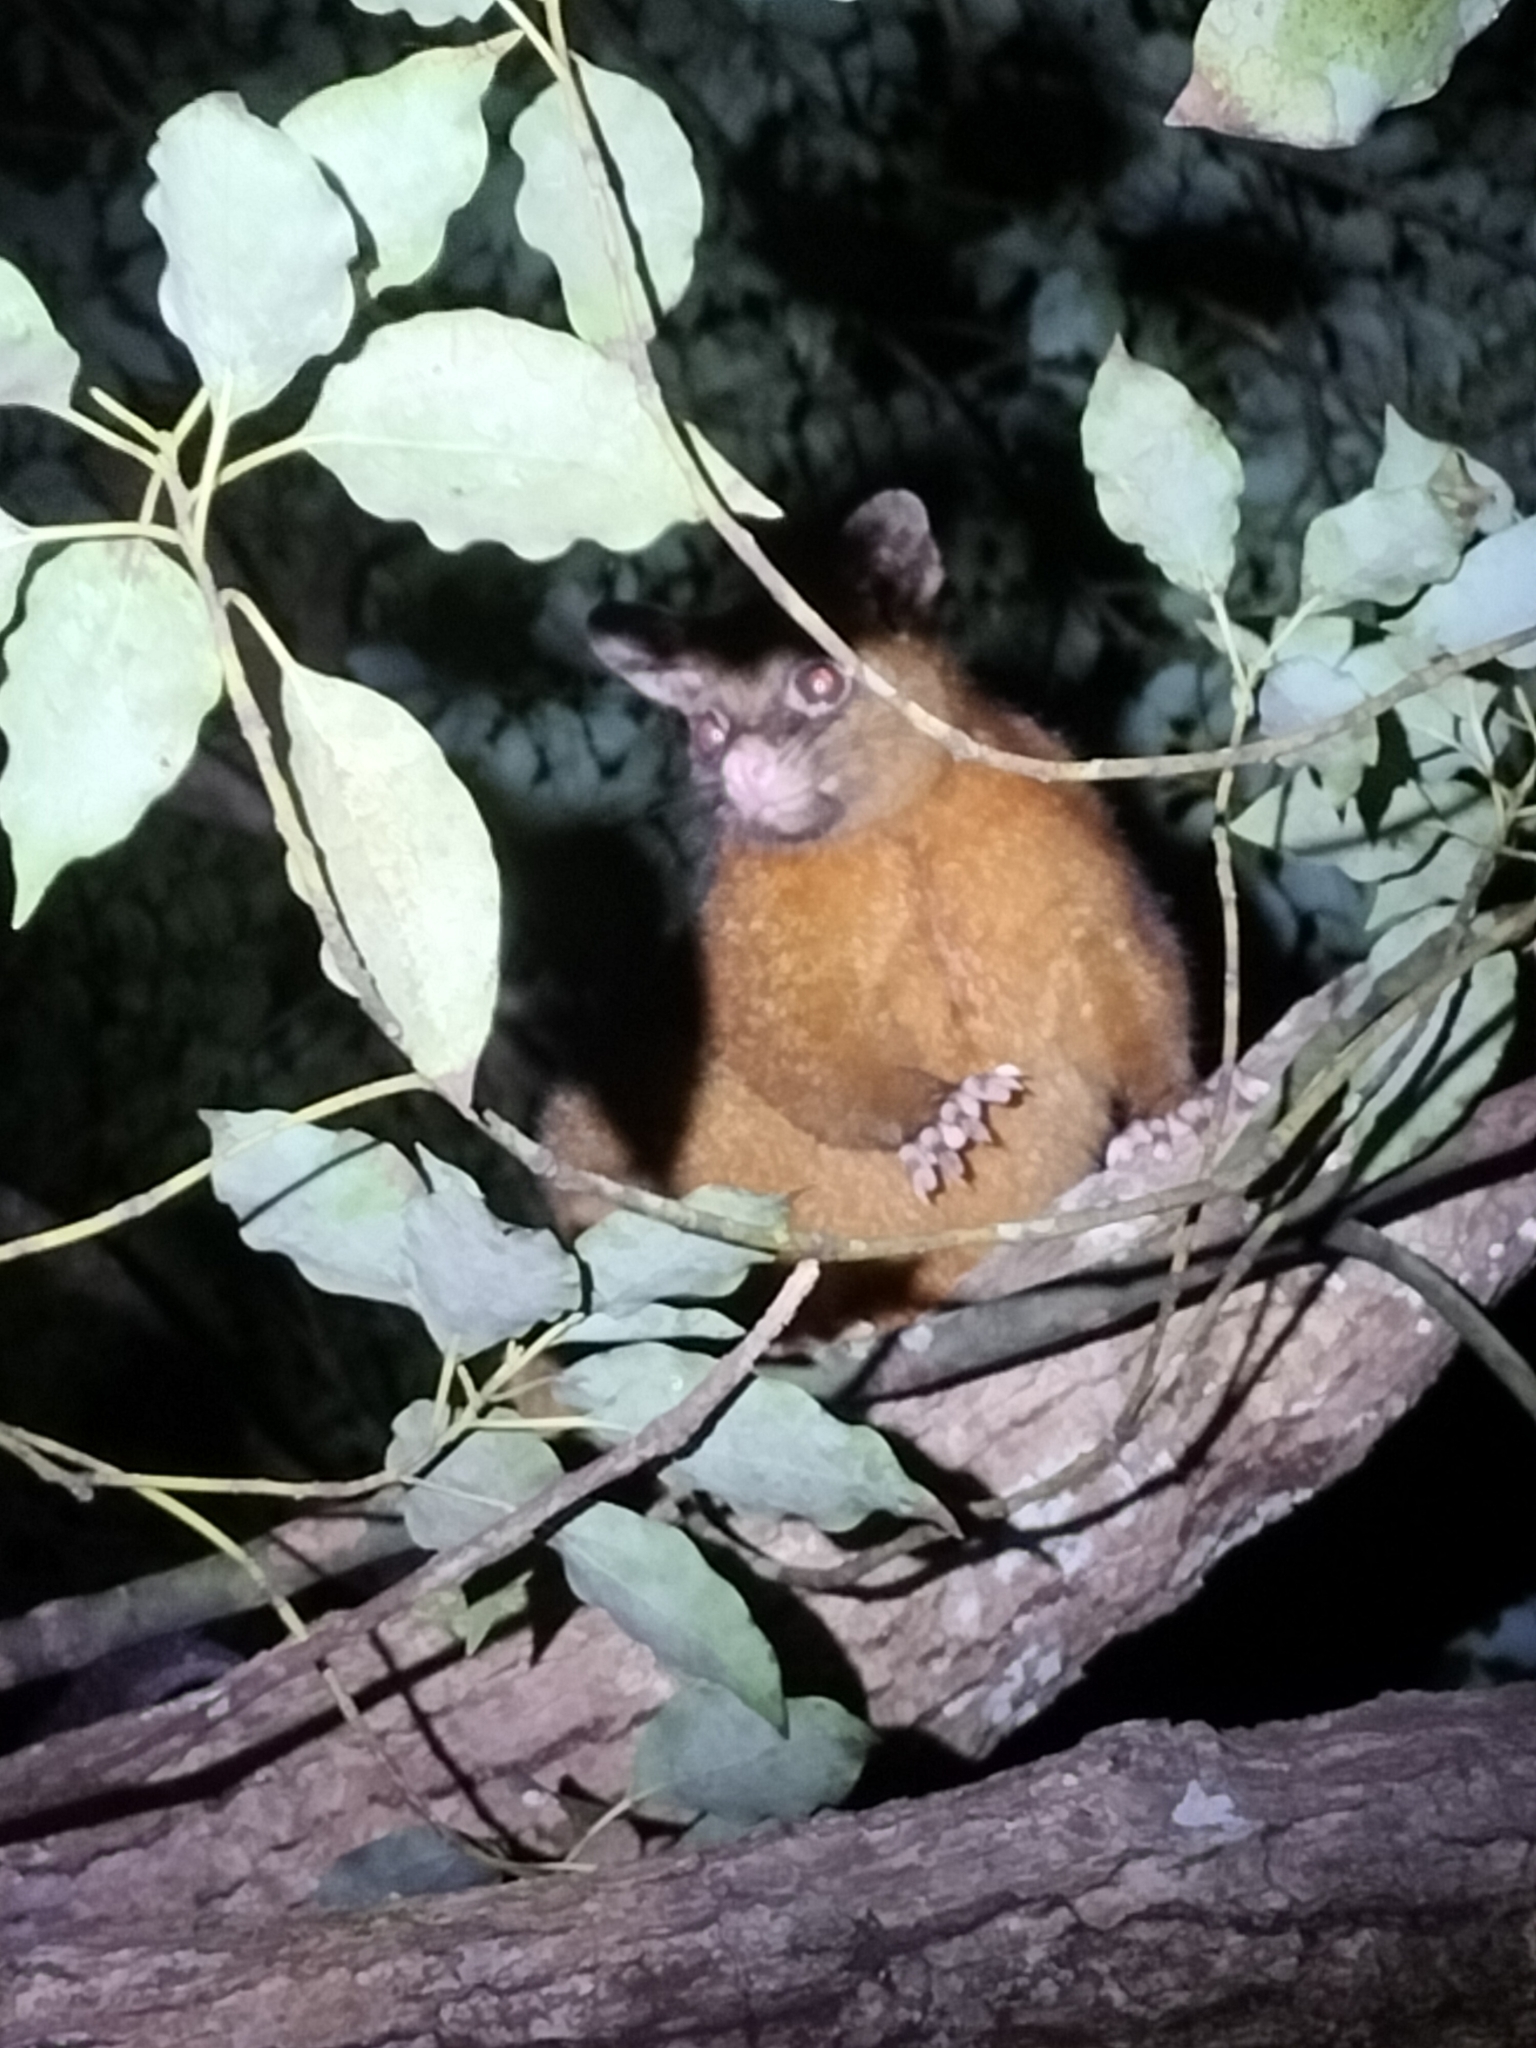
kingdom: Animalia
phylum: Chordata
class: Mammalia
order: Diprotodontia
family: Phalangeridae
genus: Trichosurus
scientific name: Trichosurus johnstonii
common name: Coppery brushtail
